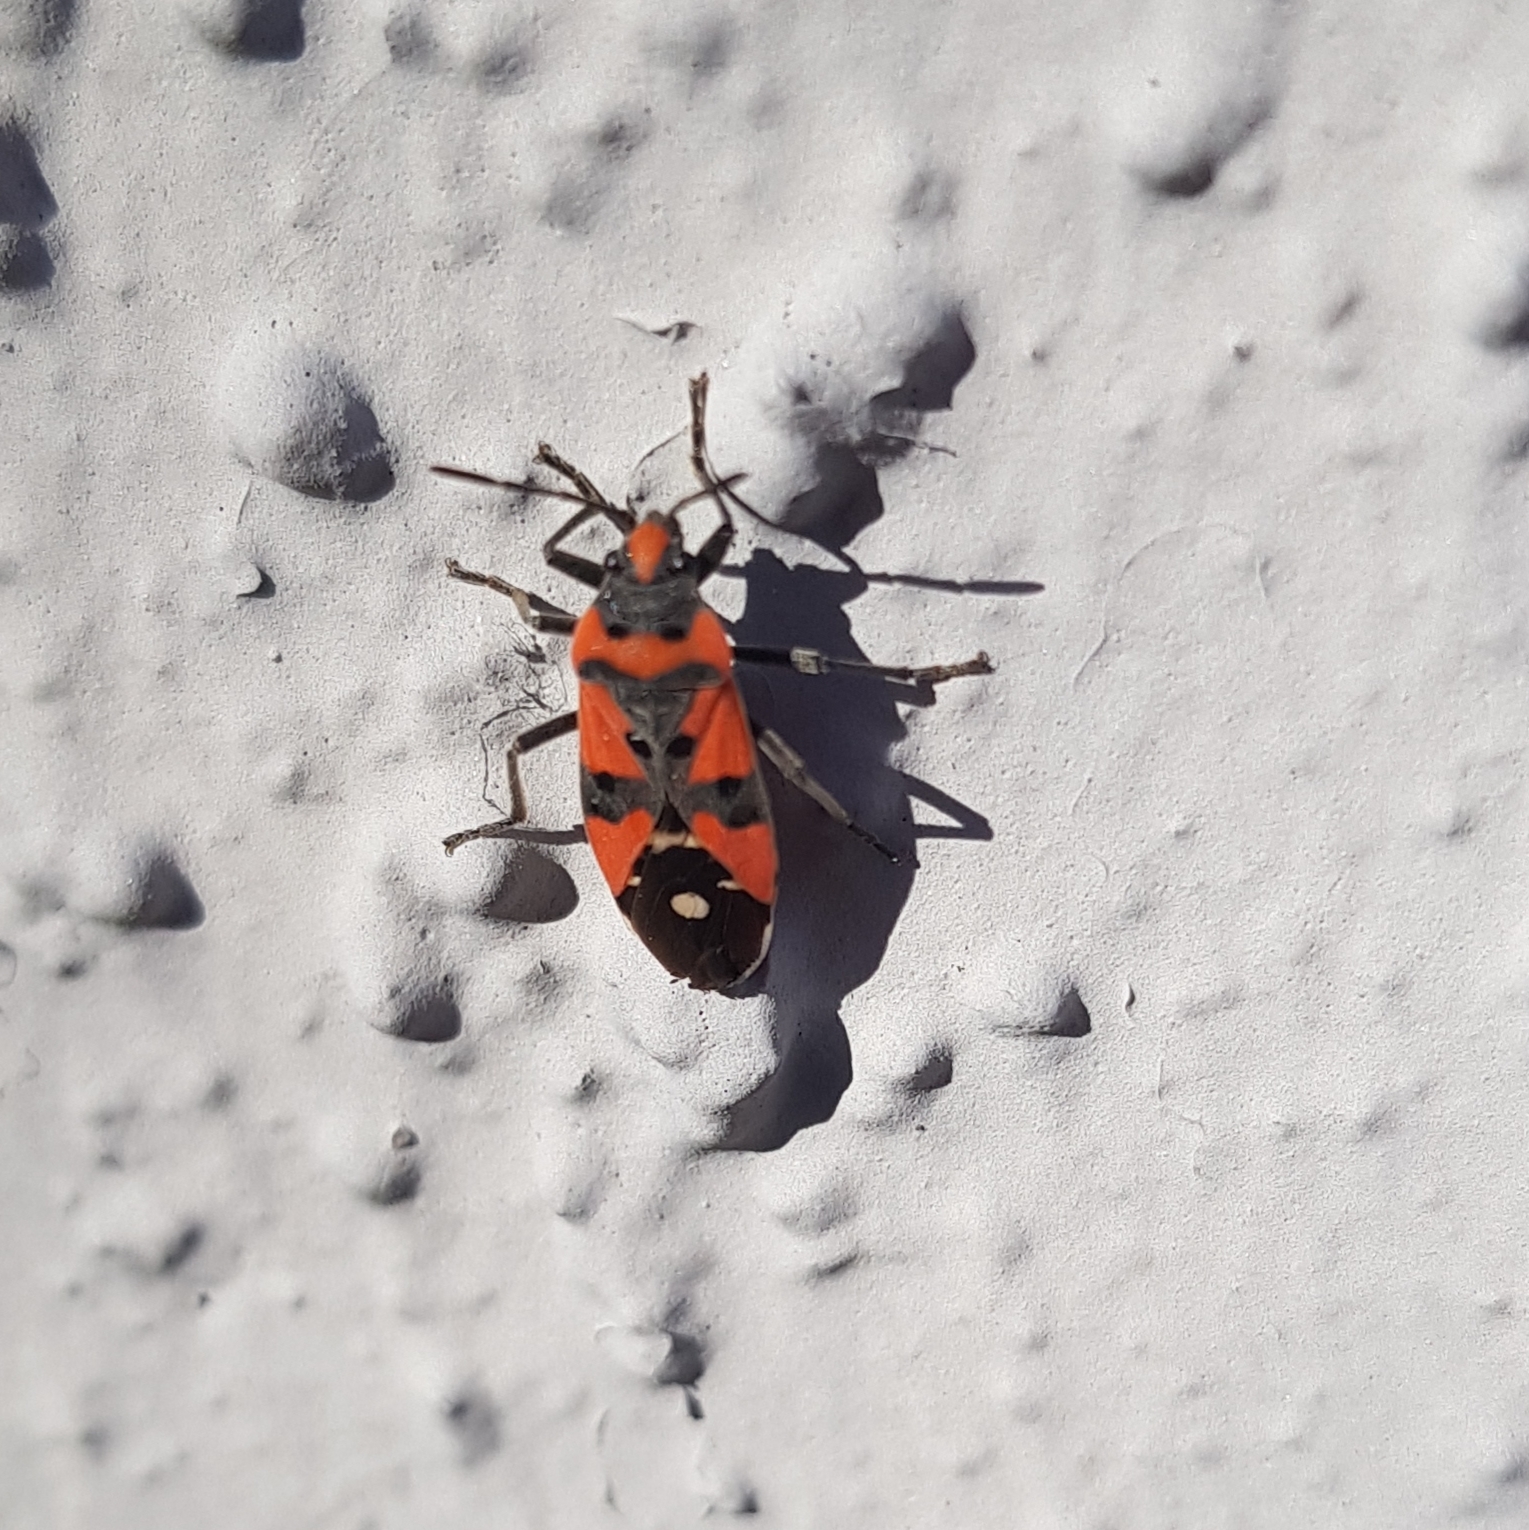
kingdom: Animalia
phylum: Arthropoda
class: Insecta
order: Hemiptera
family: Lygaeidae
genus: Lygaeus
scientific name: Lygaeus equestris
